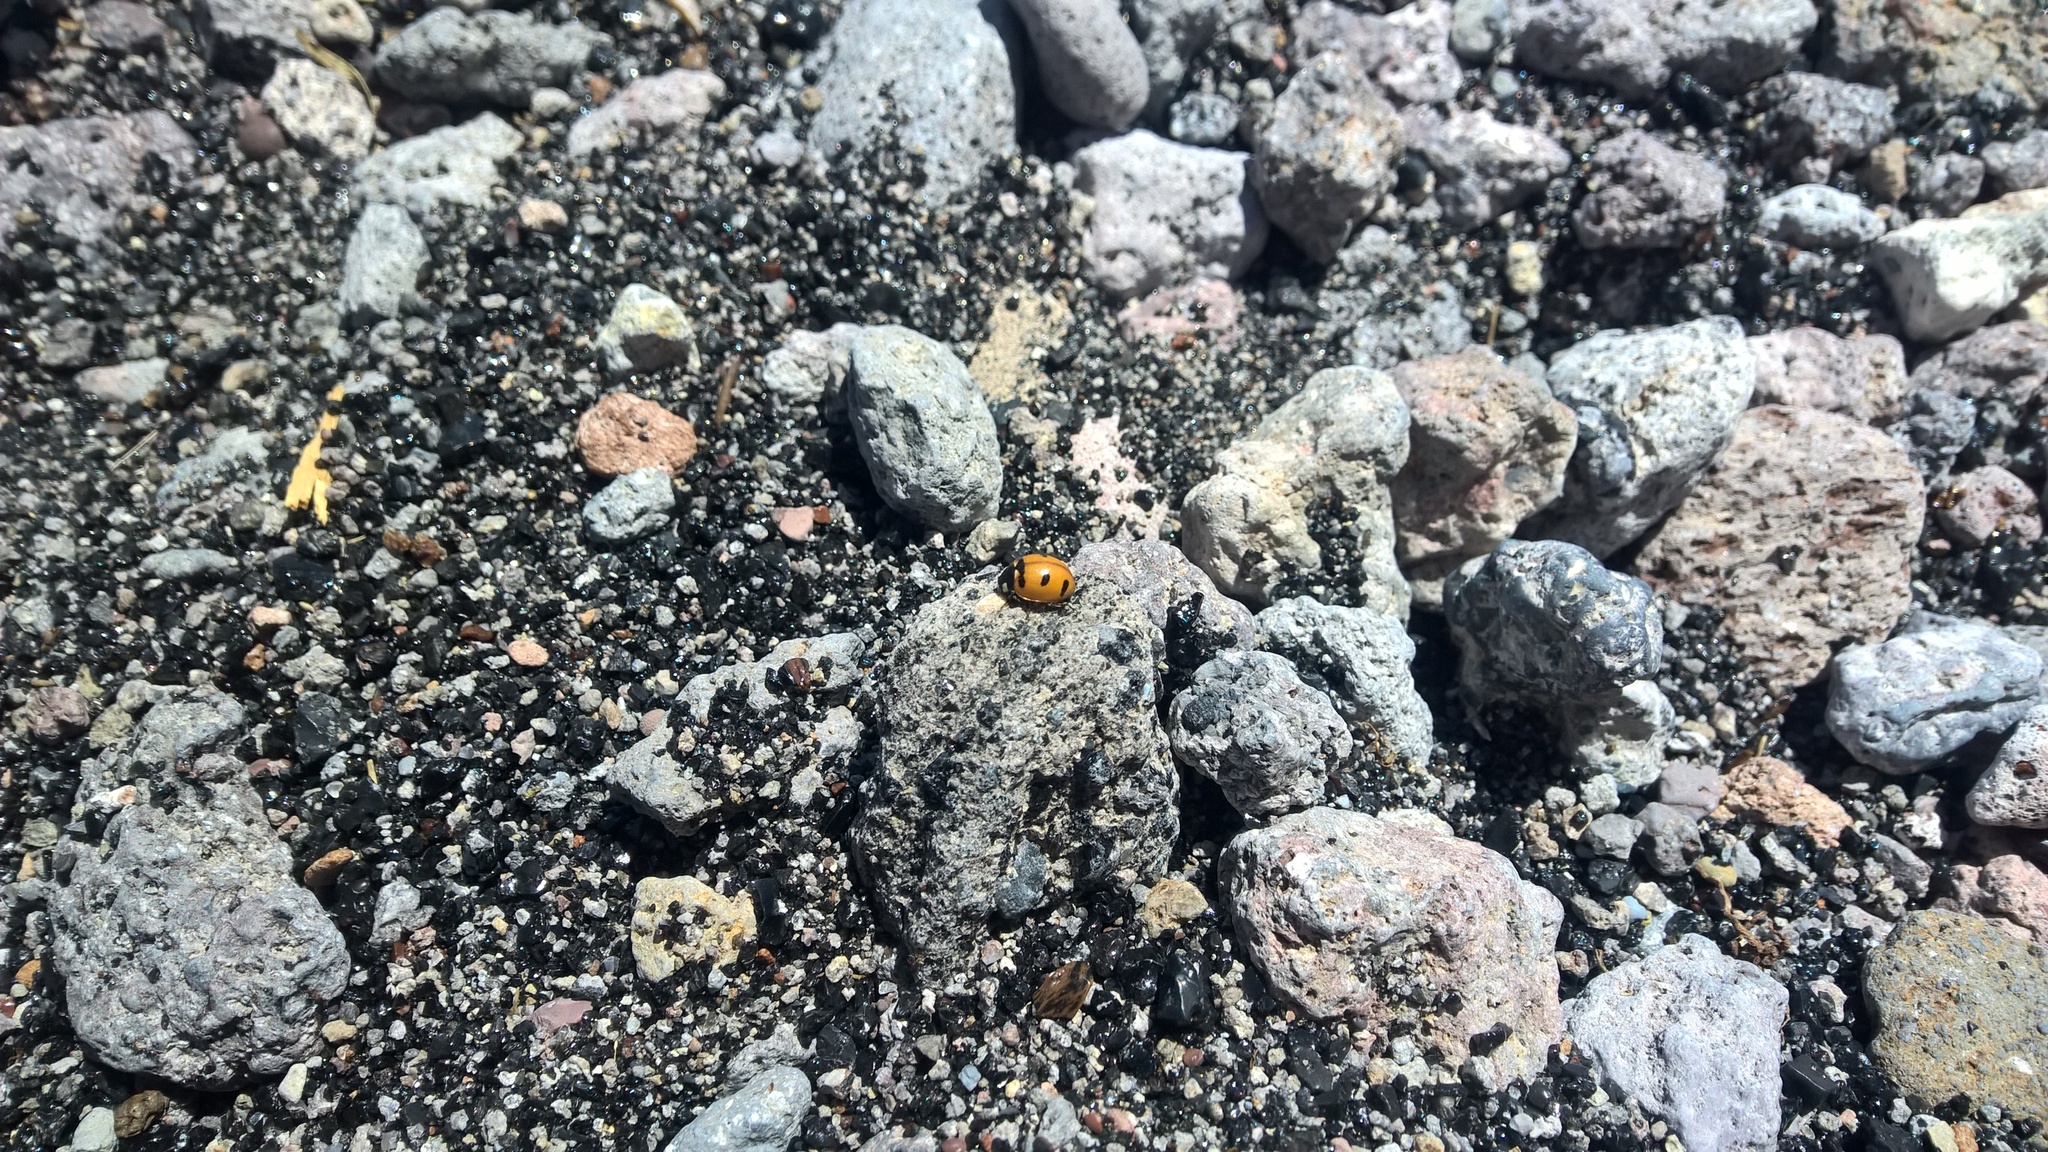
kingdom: Animalia
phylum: Arthropoda
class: Insecta
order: Coleoptera
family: Coccinellidae
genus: Coccinella
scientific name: Coccinella transversoguttata
